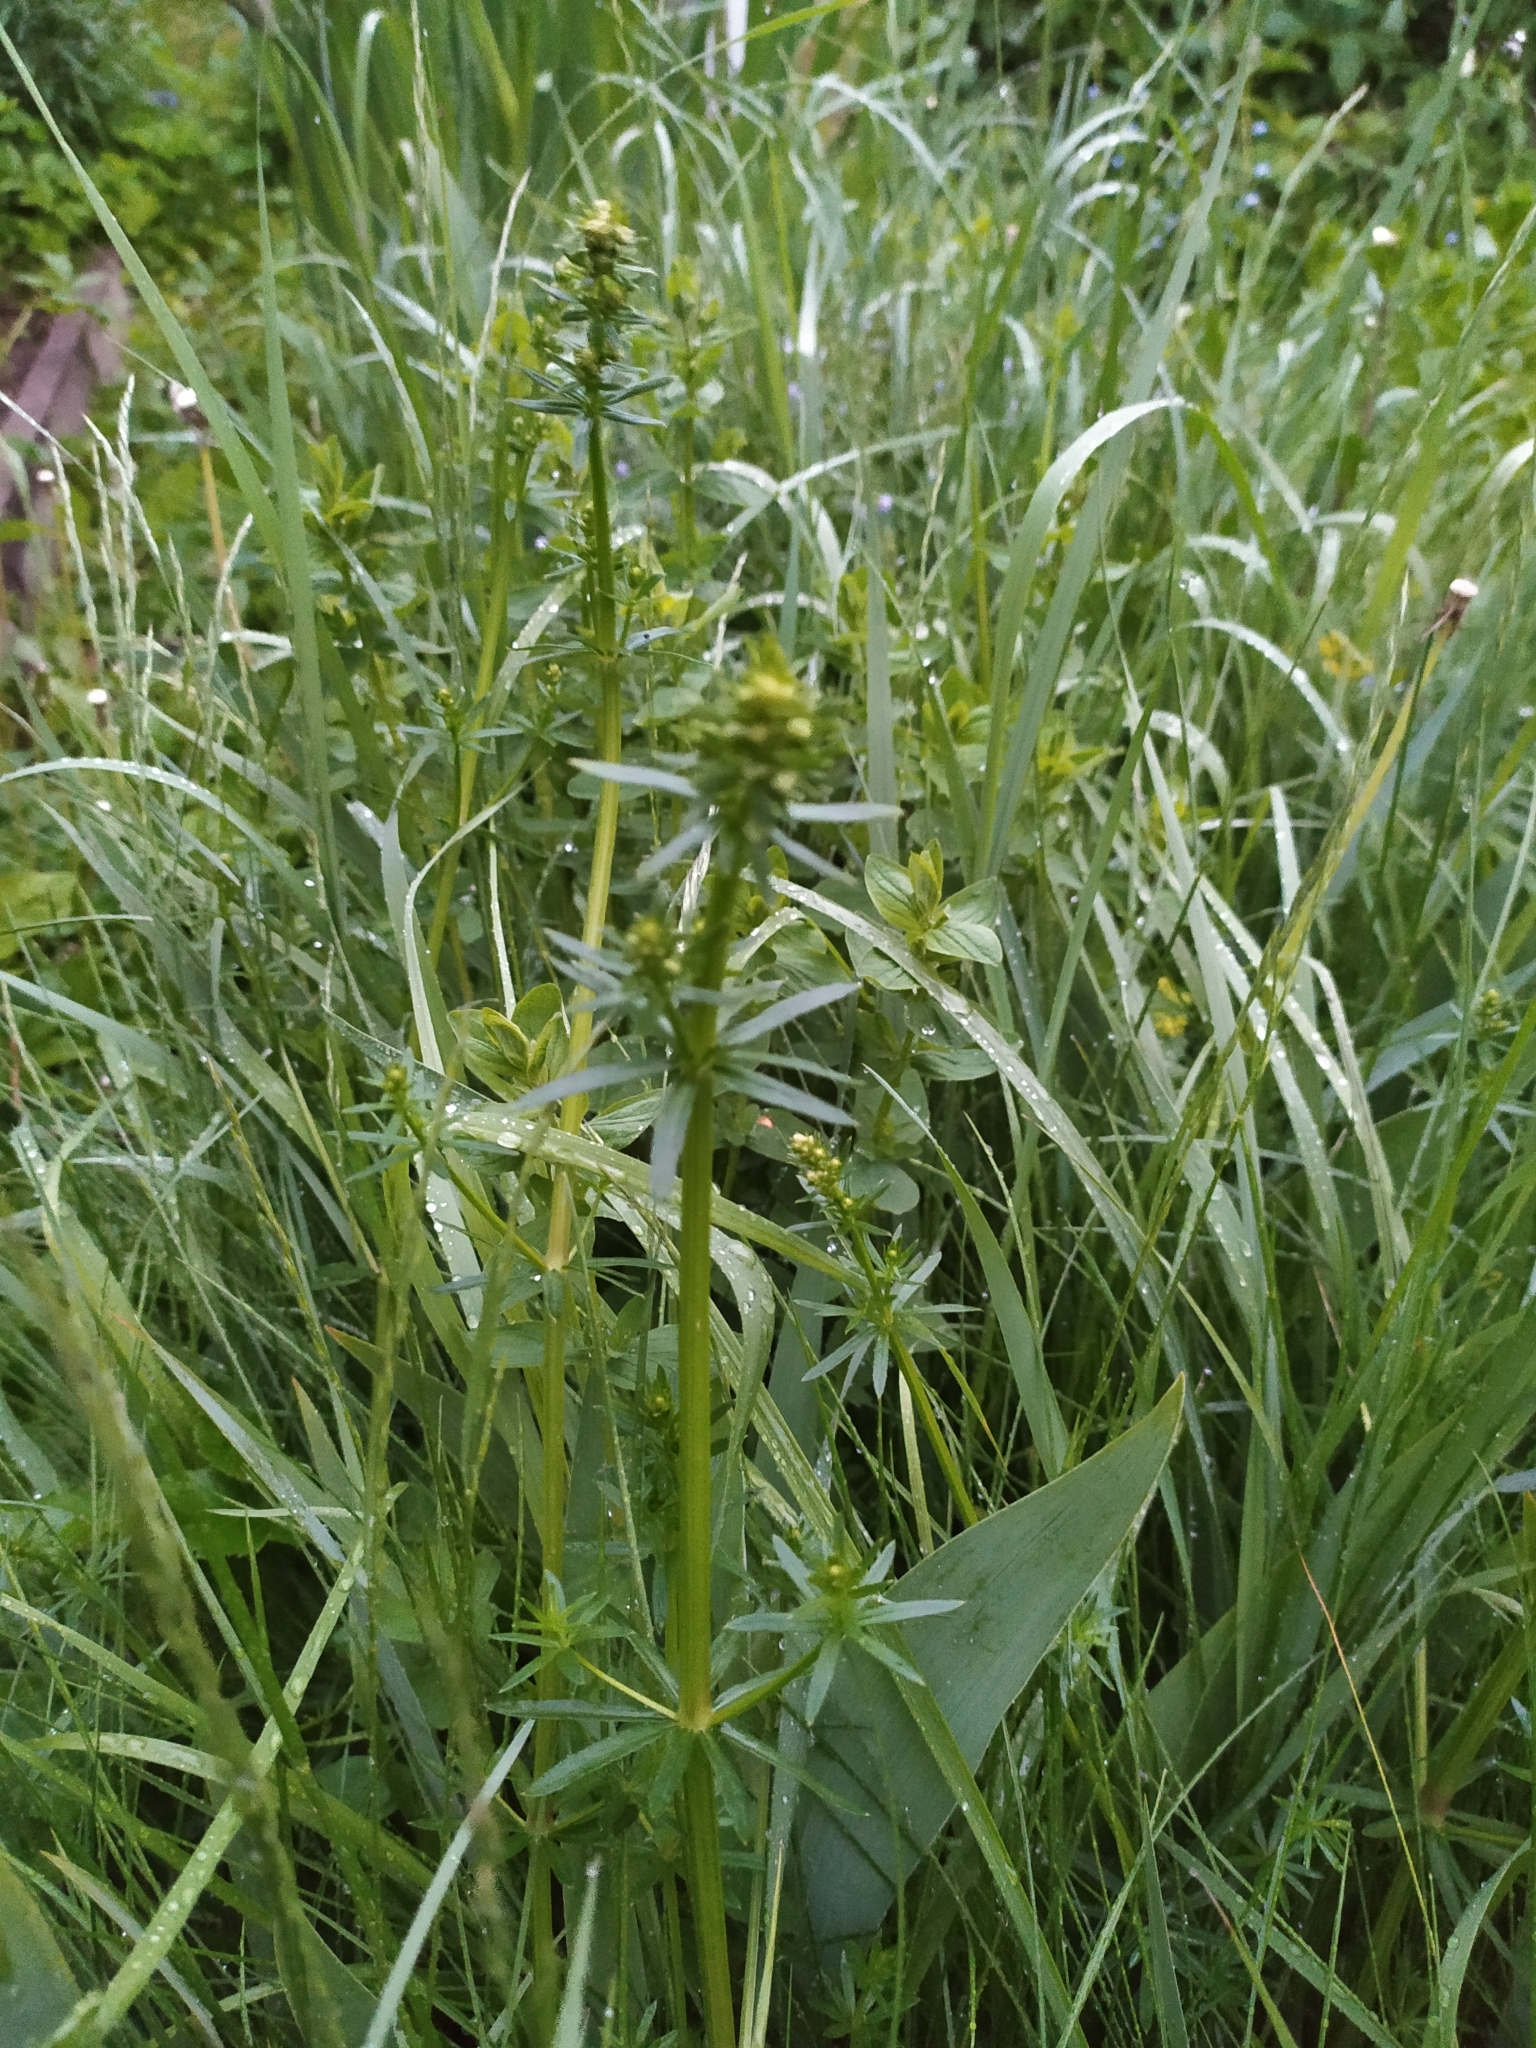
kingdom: Plantae
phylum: Tracheophyta
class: Magnoliopsida
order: Gentianales
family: Rubiaceae
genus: Galium
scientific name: Galium mollugo
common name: Hedge bedstraw
